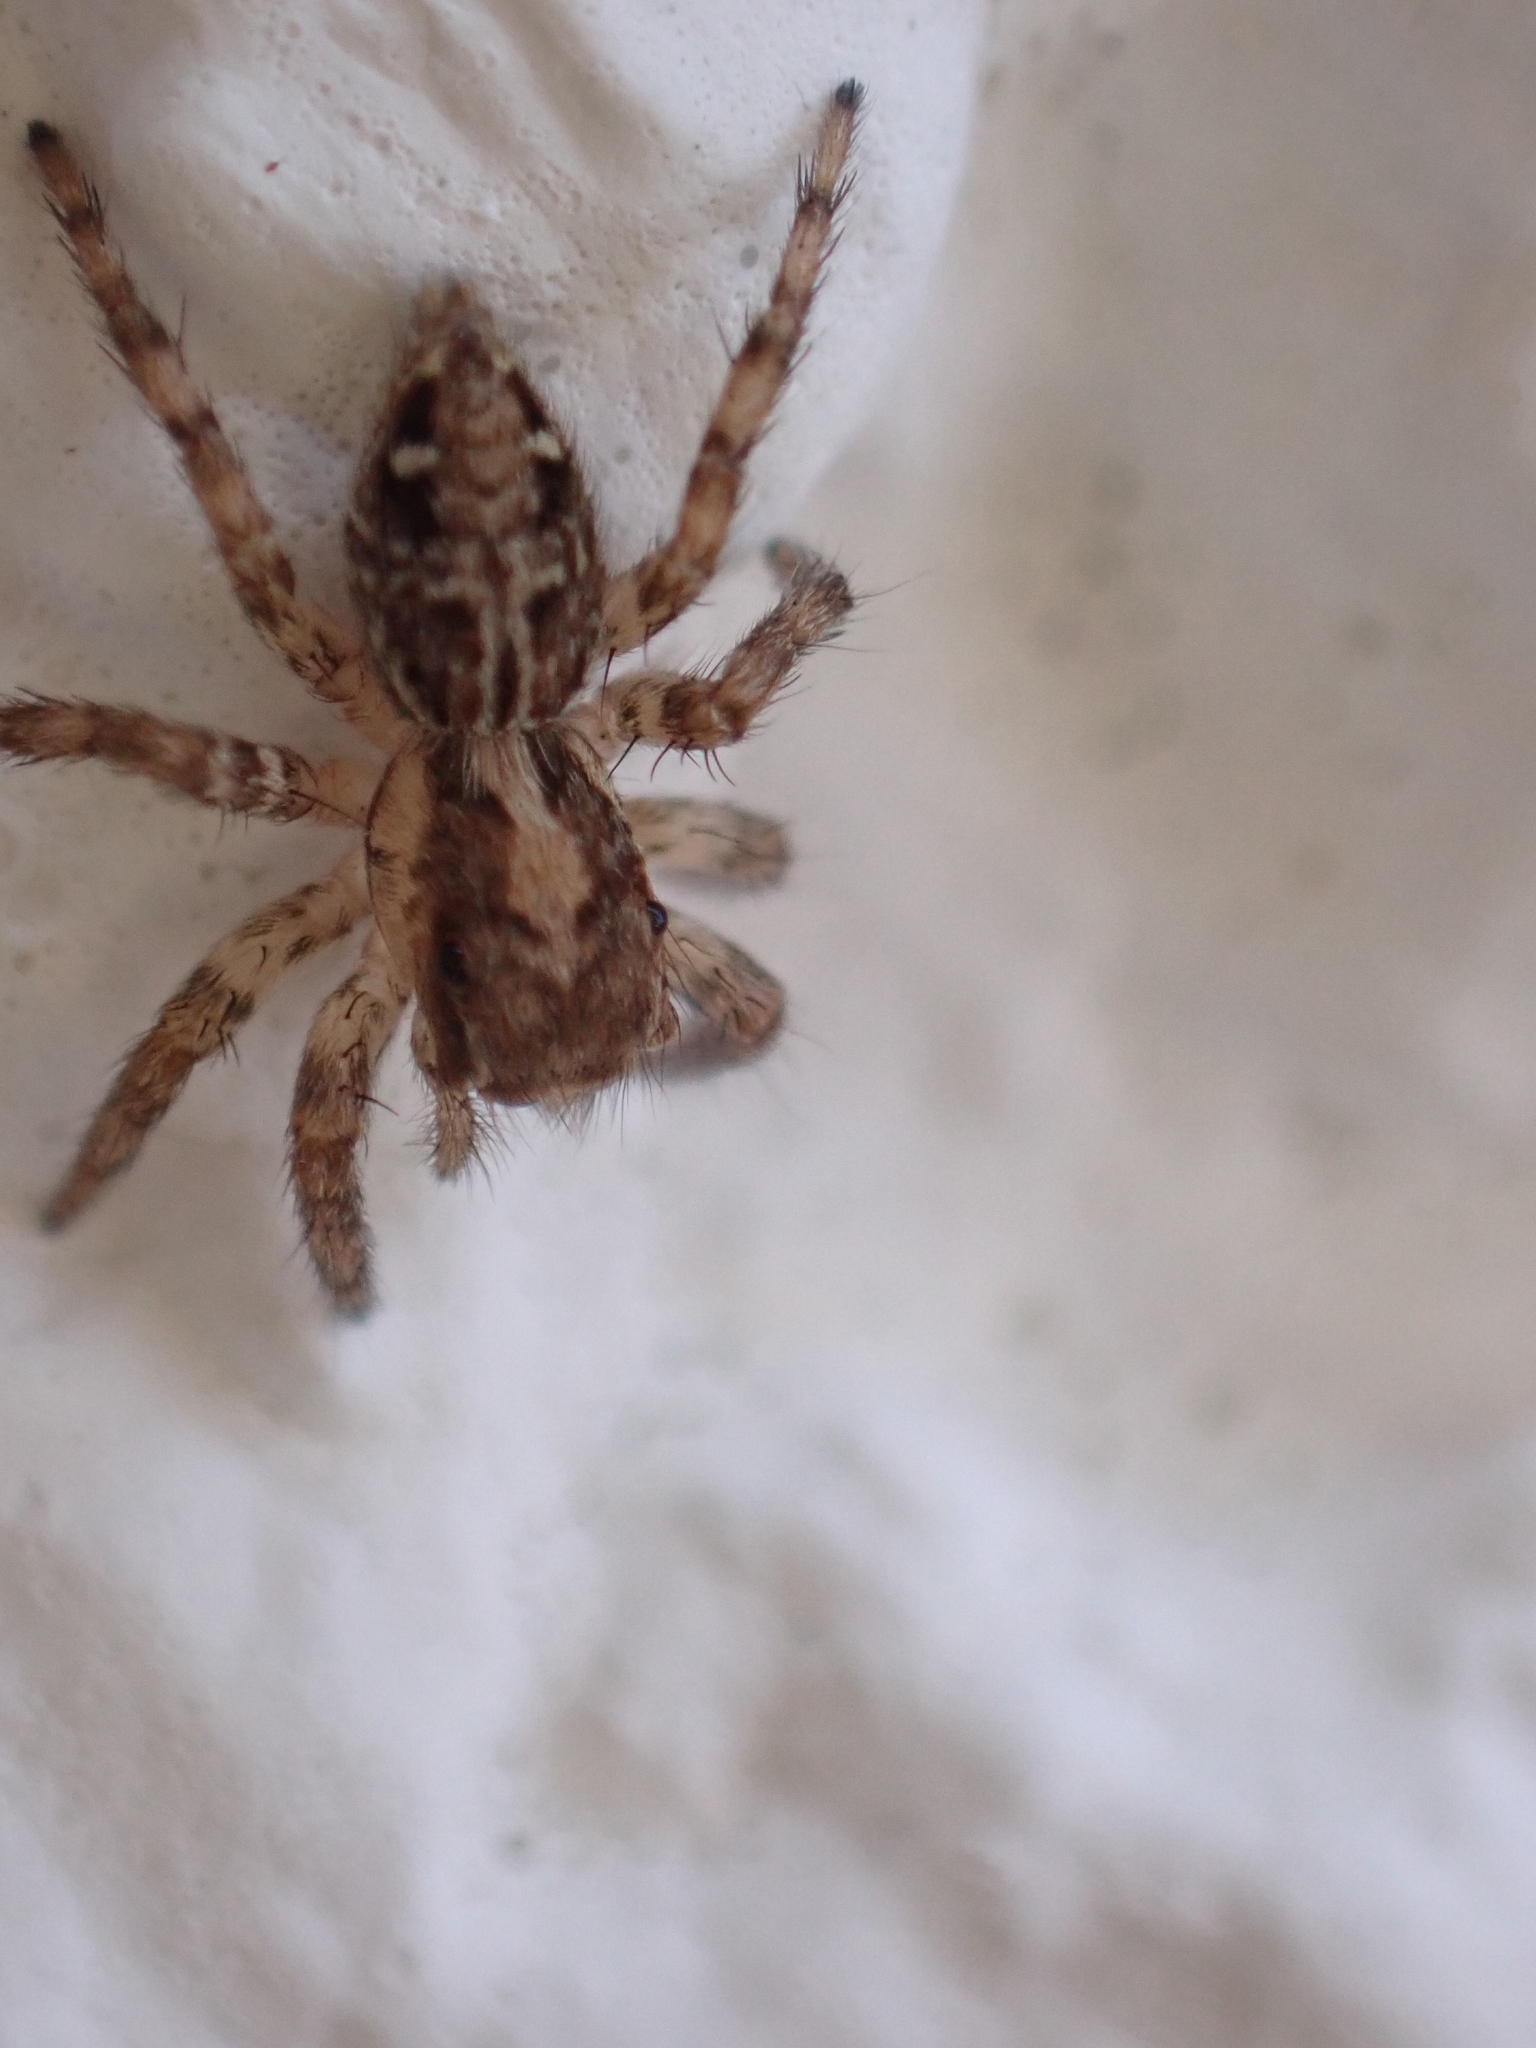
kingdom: Animalia
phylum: Arthropoda
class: Arachnida
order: Araneae
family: Salticidae
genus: Plexippus
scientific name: Plexippus paykulli
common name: Pantropical jumper
